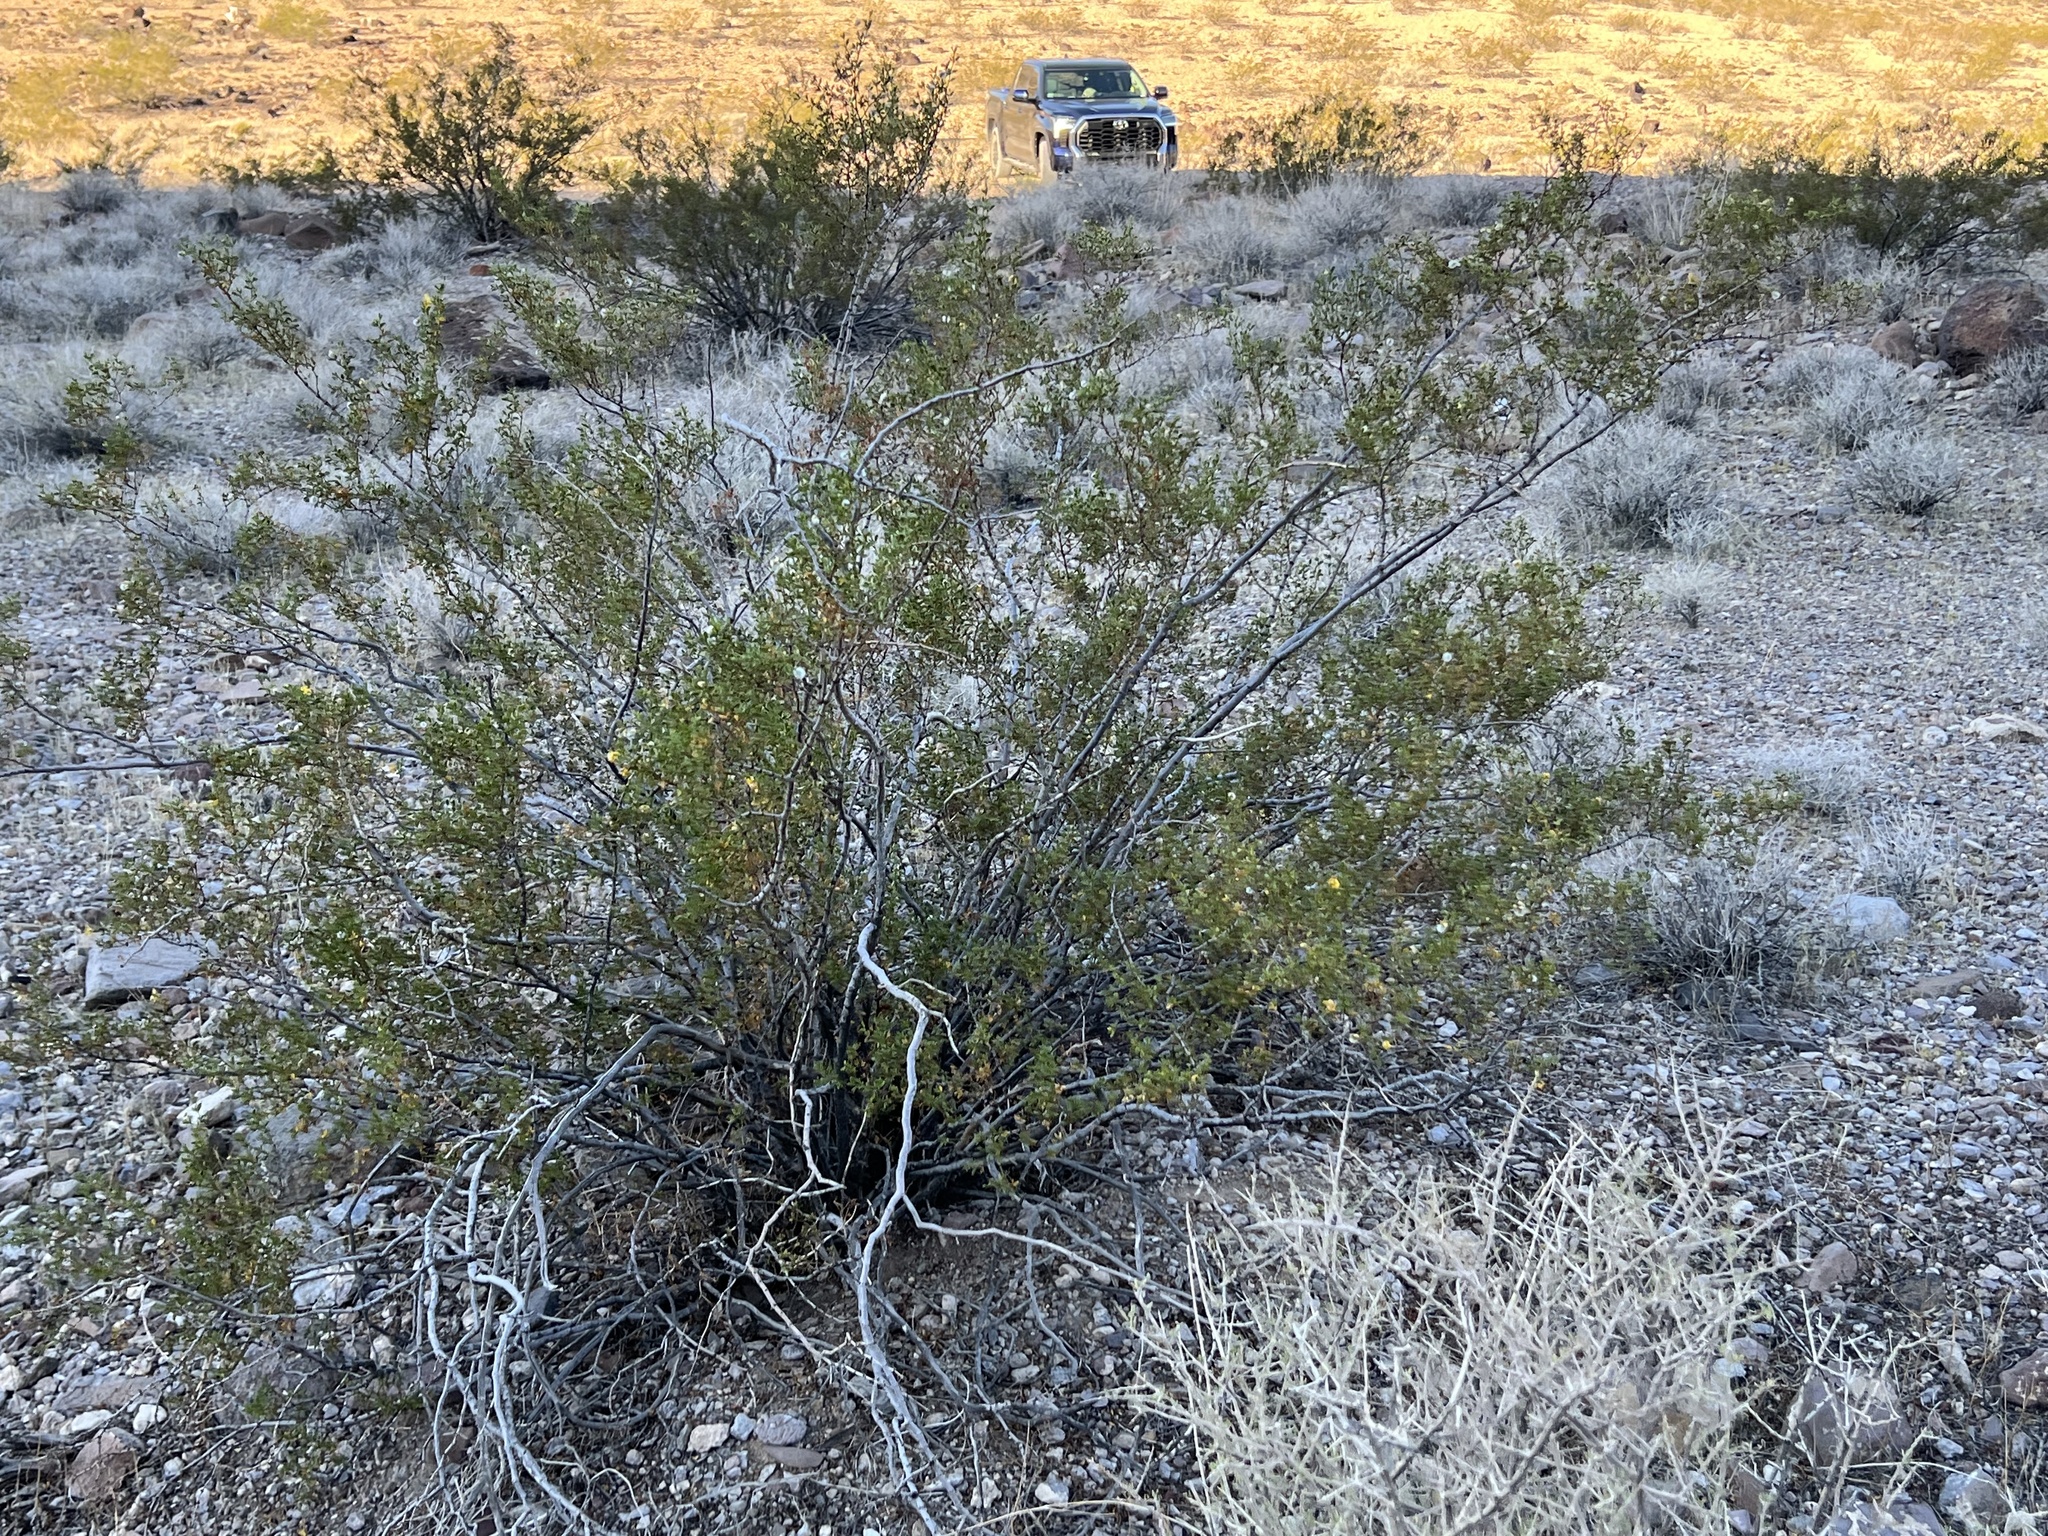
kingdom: Plantae
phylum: Tracheophyta
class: Magnoliopsida
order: Zygophyllales
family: Zygophyllaceae
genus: Larrea
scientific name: Larrea tridentata
